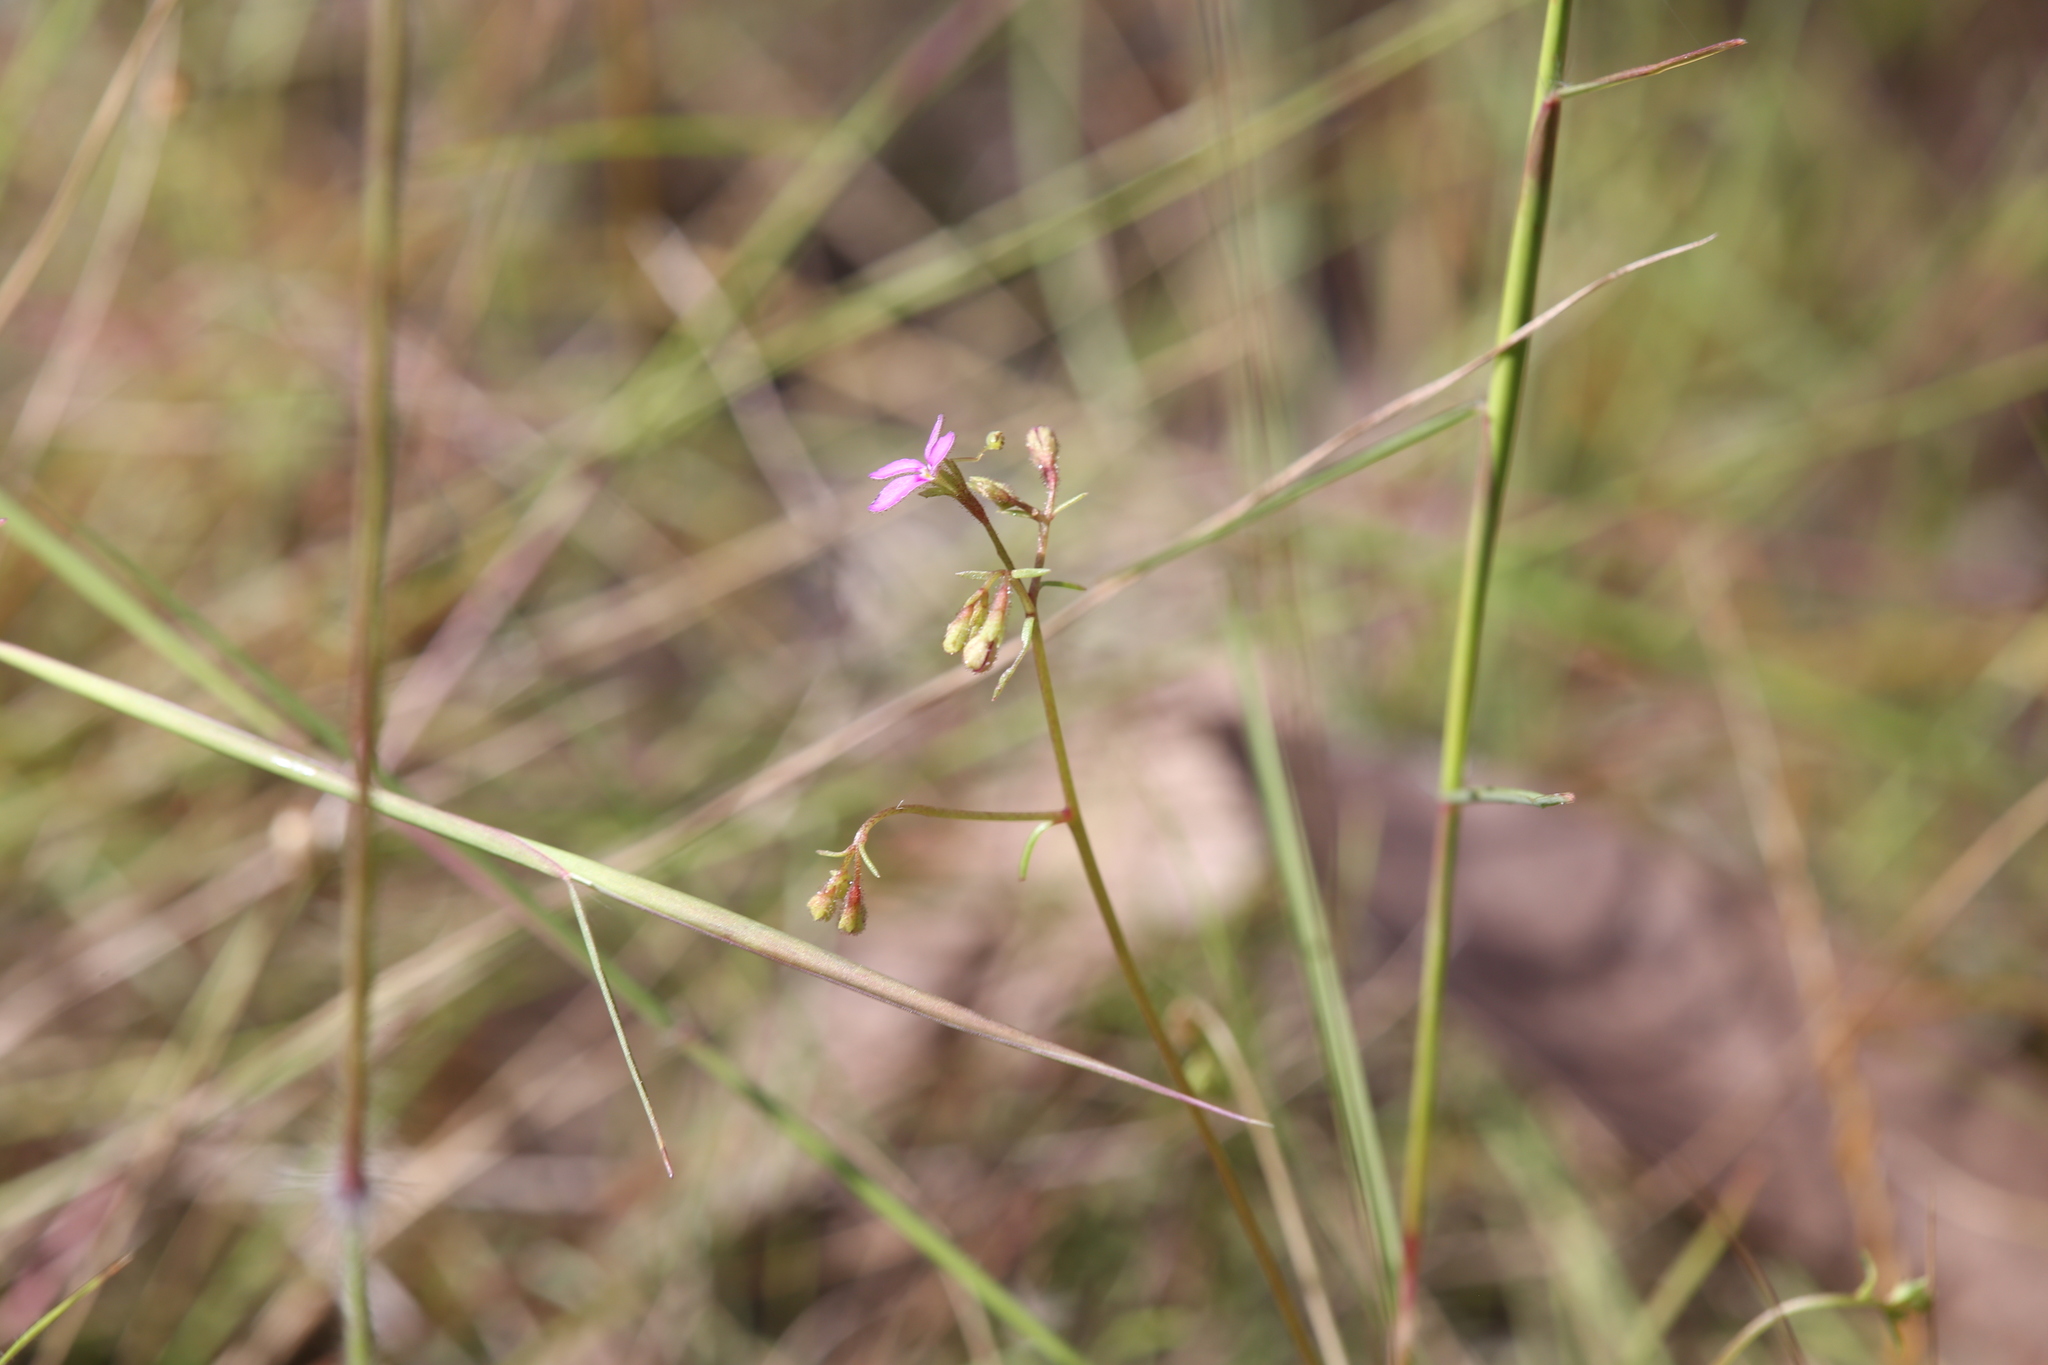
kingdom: Plantae
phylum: Tracheophyta
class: Magnoliopsida
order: Asterales
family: Stylidiaceae
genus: Stylidium
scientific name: Stylidium clarksonii
